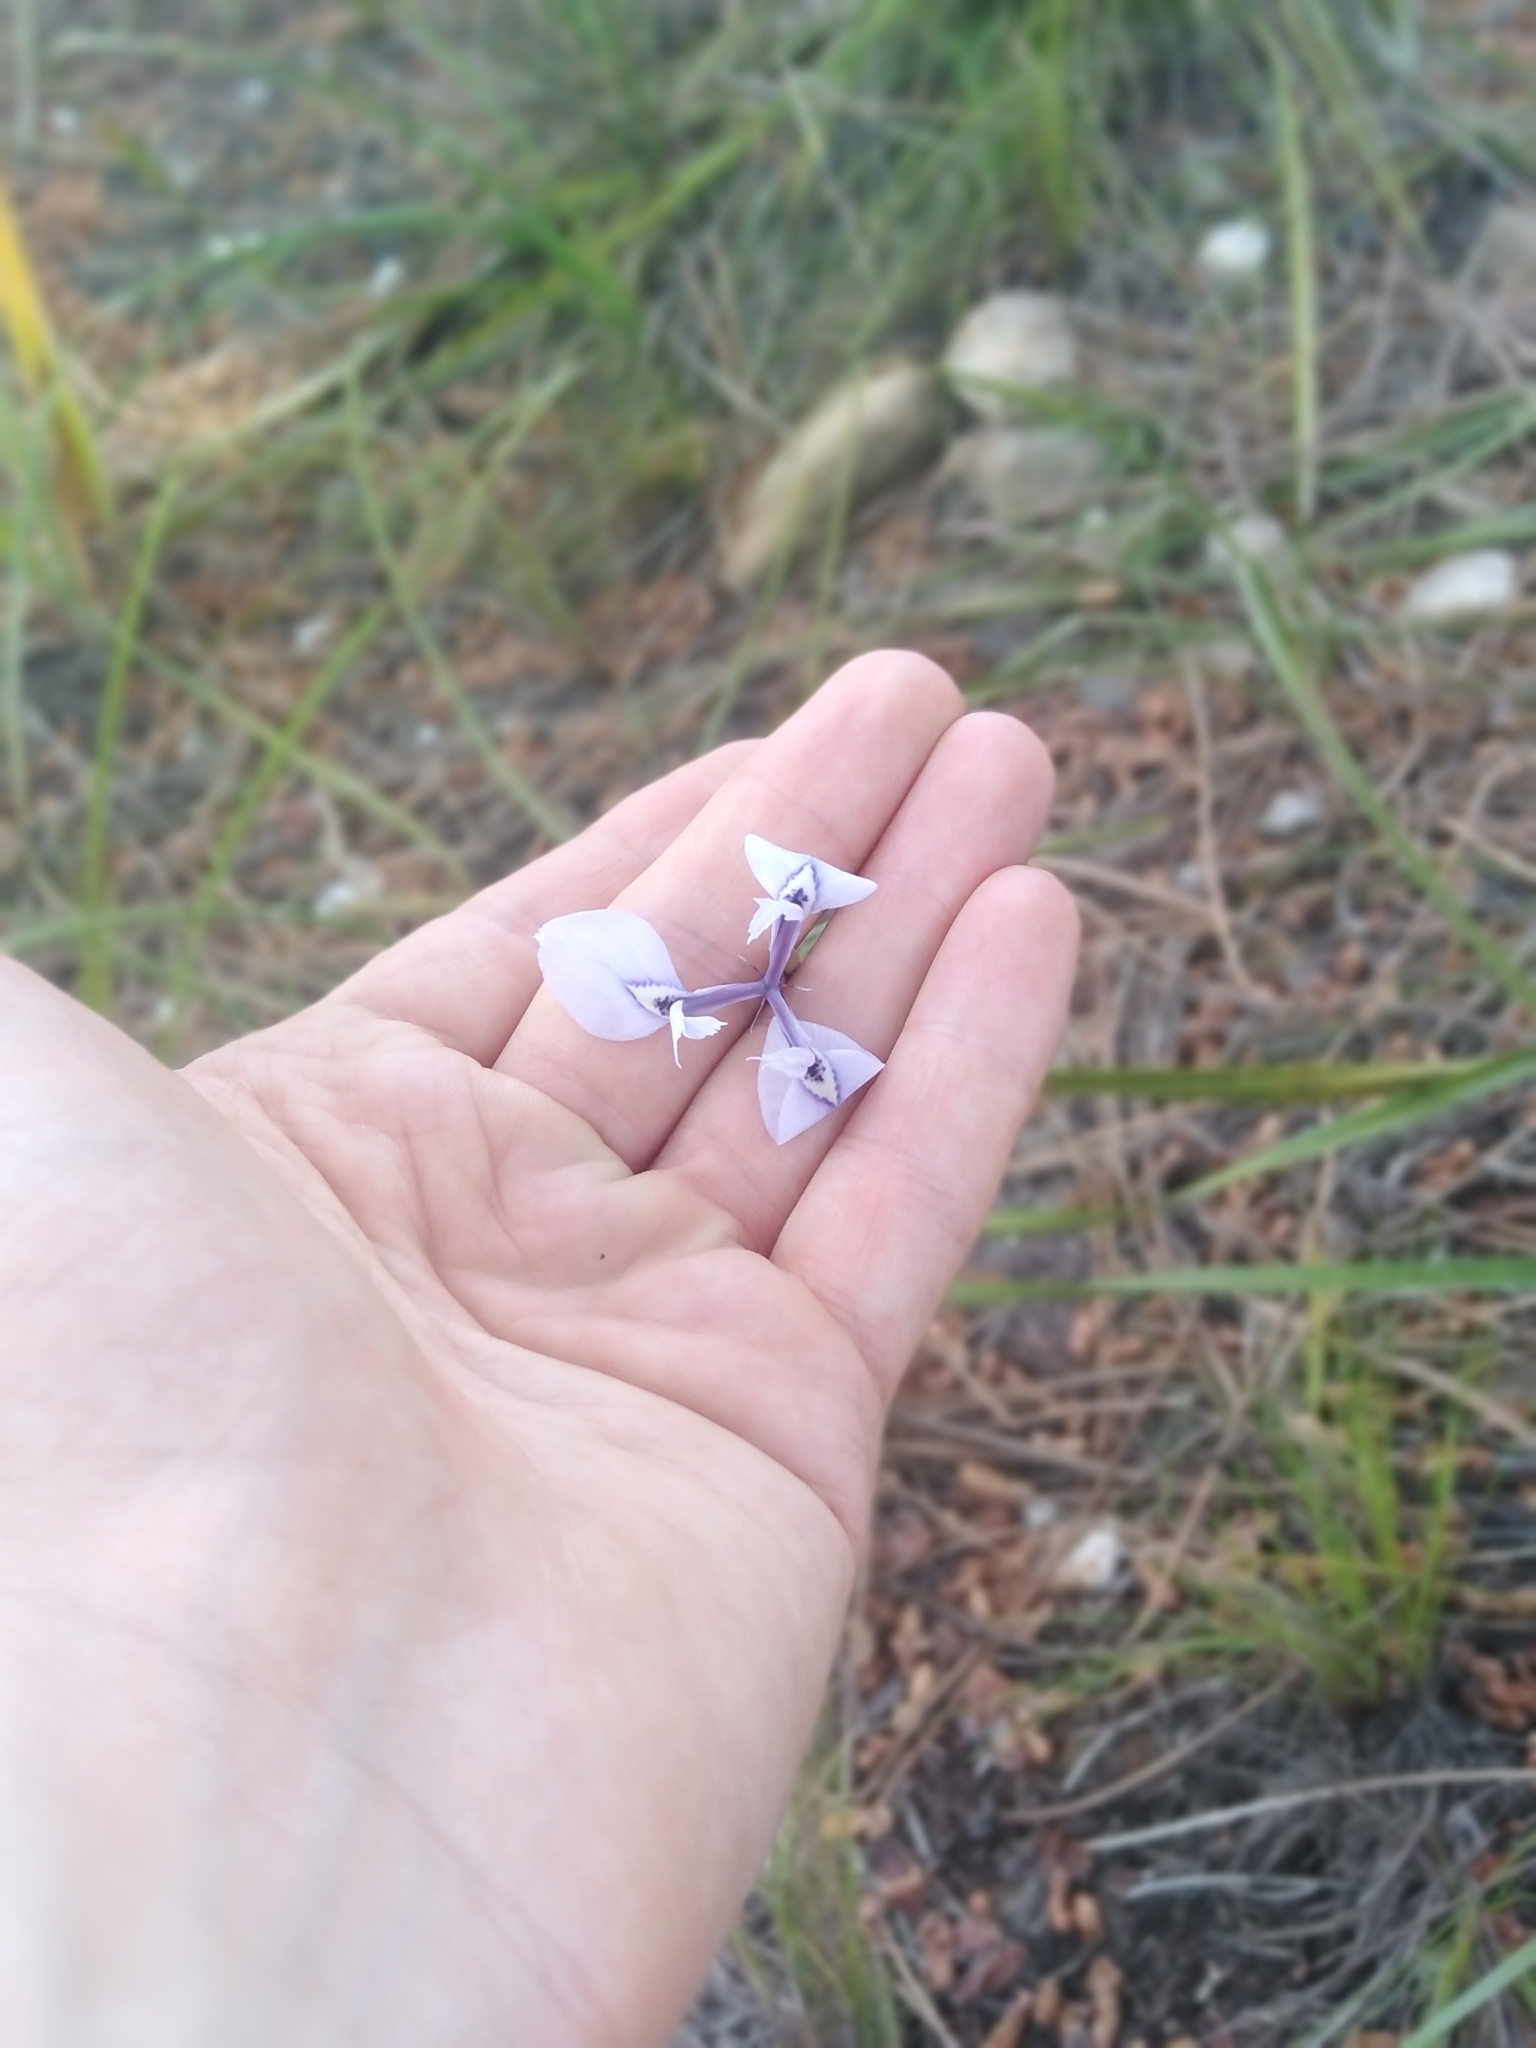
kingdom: Plantae
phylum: Tracheophyta
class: Liliopsida
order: Asparagales
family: Iridaceae
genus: Moraea
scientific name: Moraea tripetala
